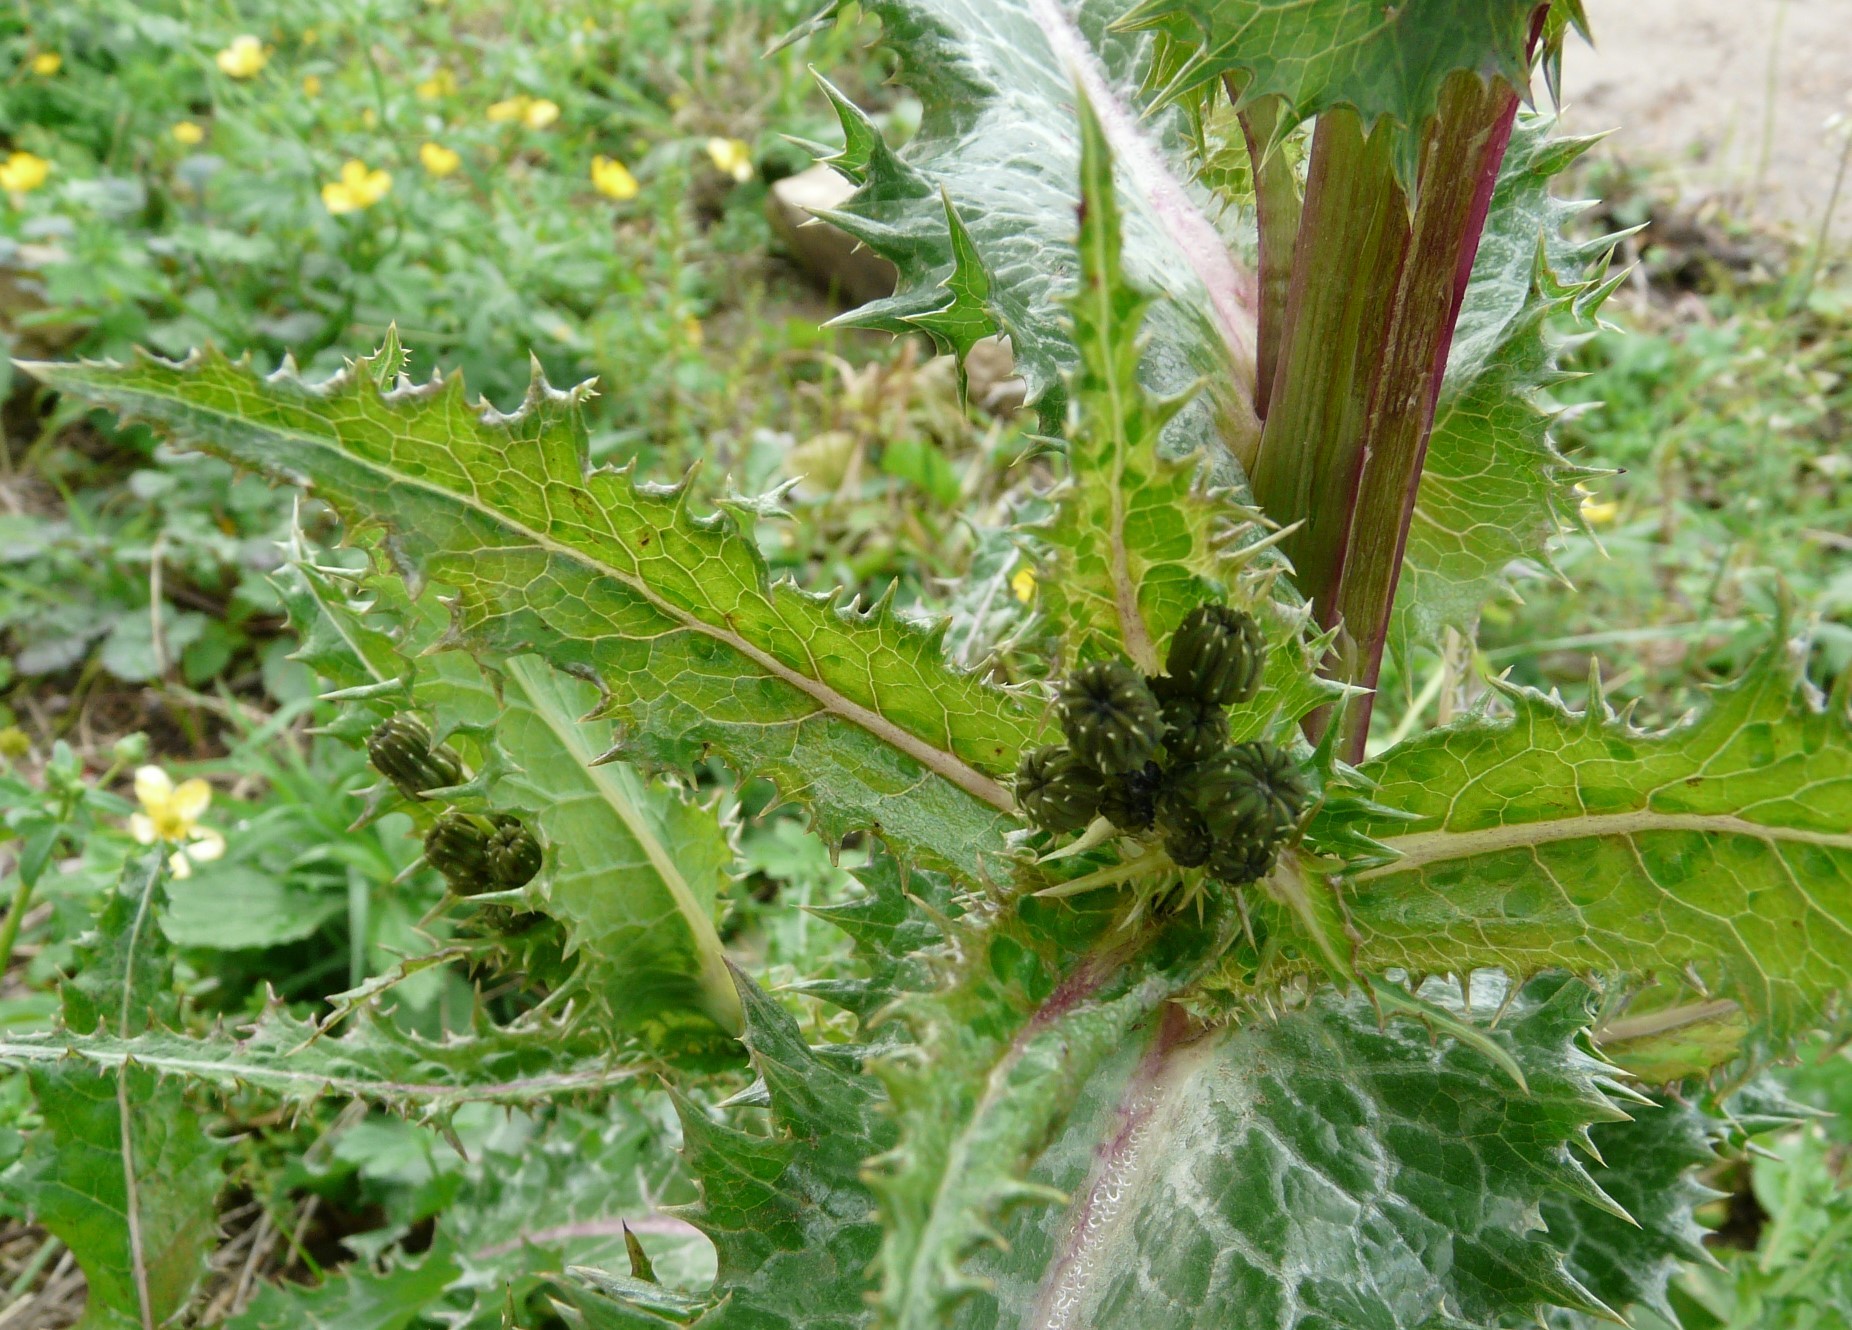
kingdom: Plantae
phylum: Tracheophyta
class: Magnoliopsida
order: Asterales
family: Asteraceae
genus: Sonchus
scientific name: Sonchus asper
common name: Prickly sow-thistle
